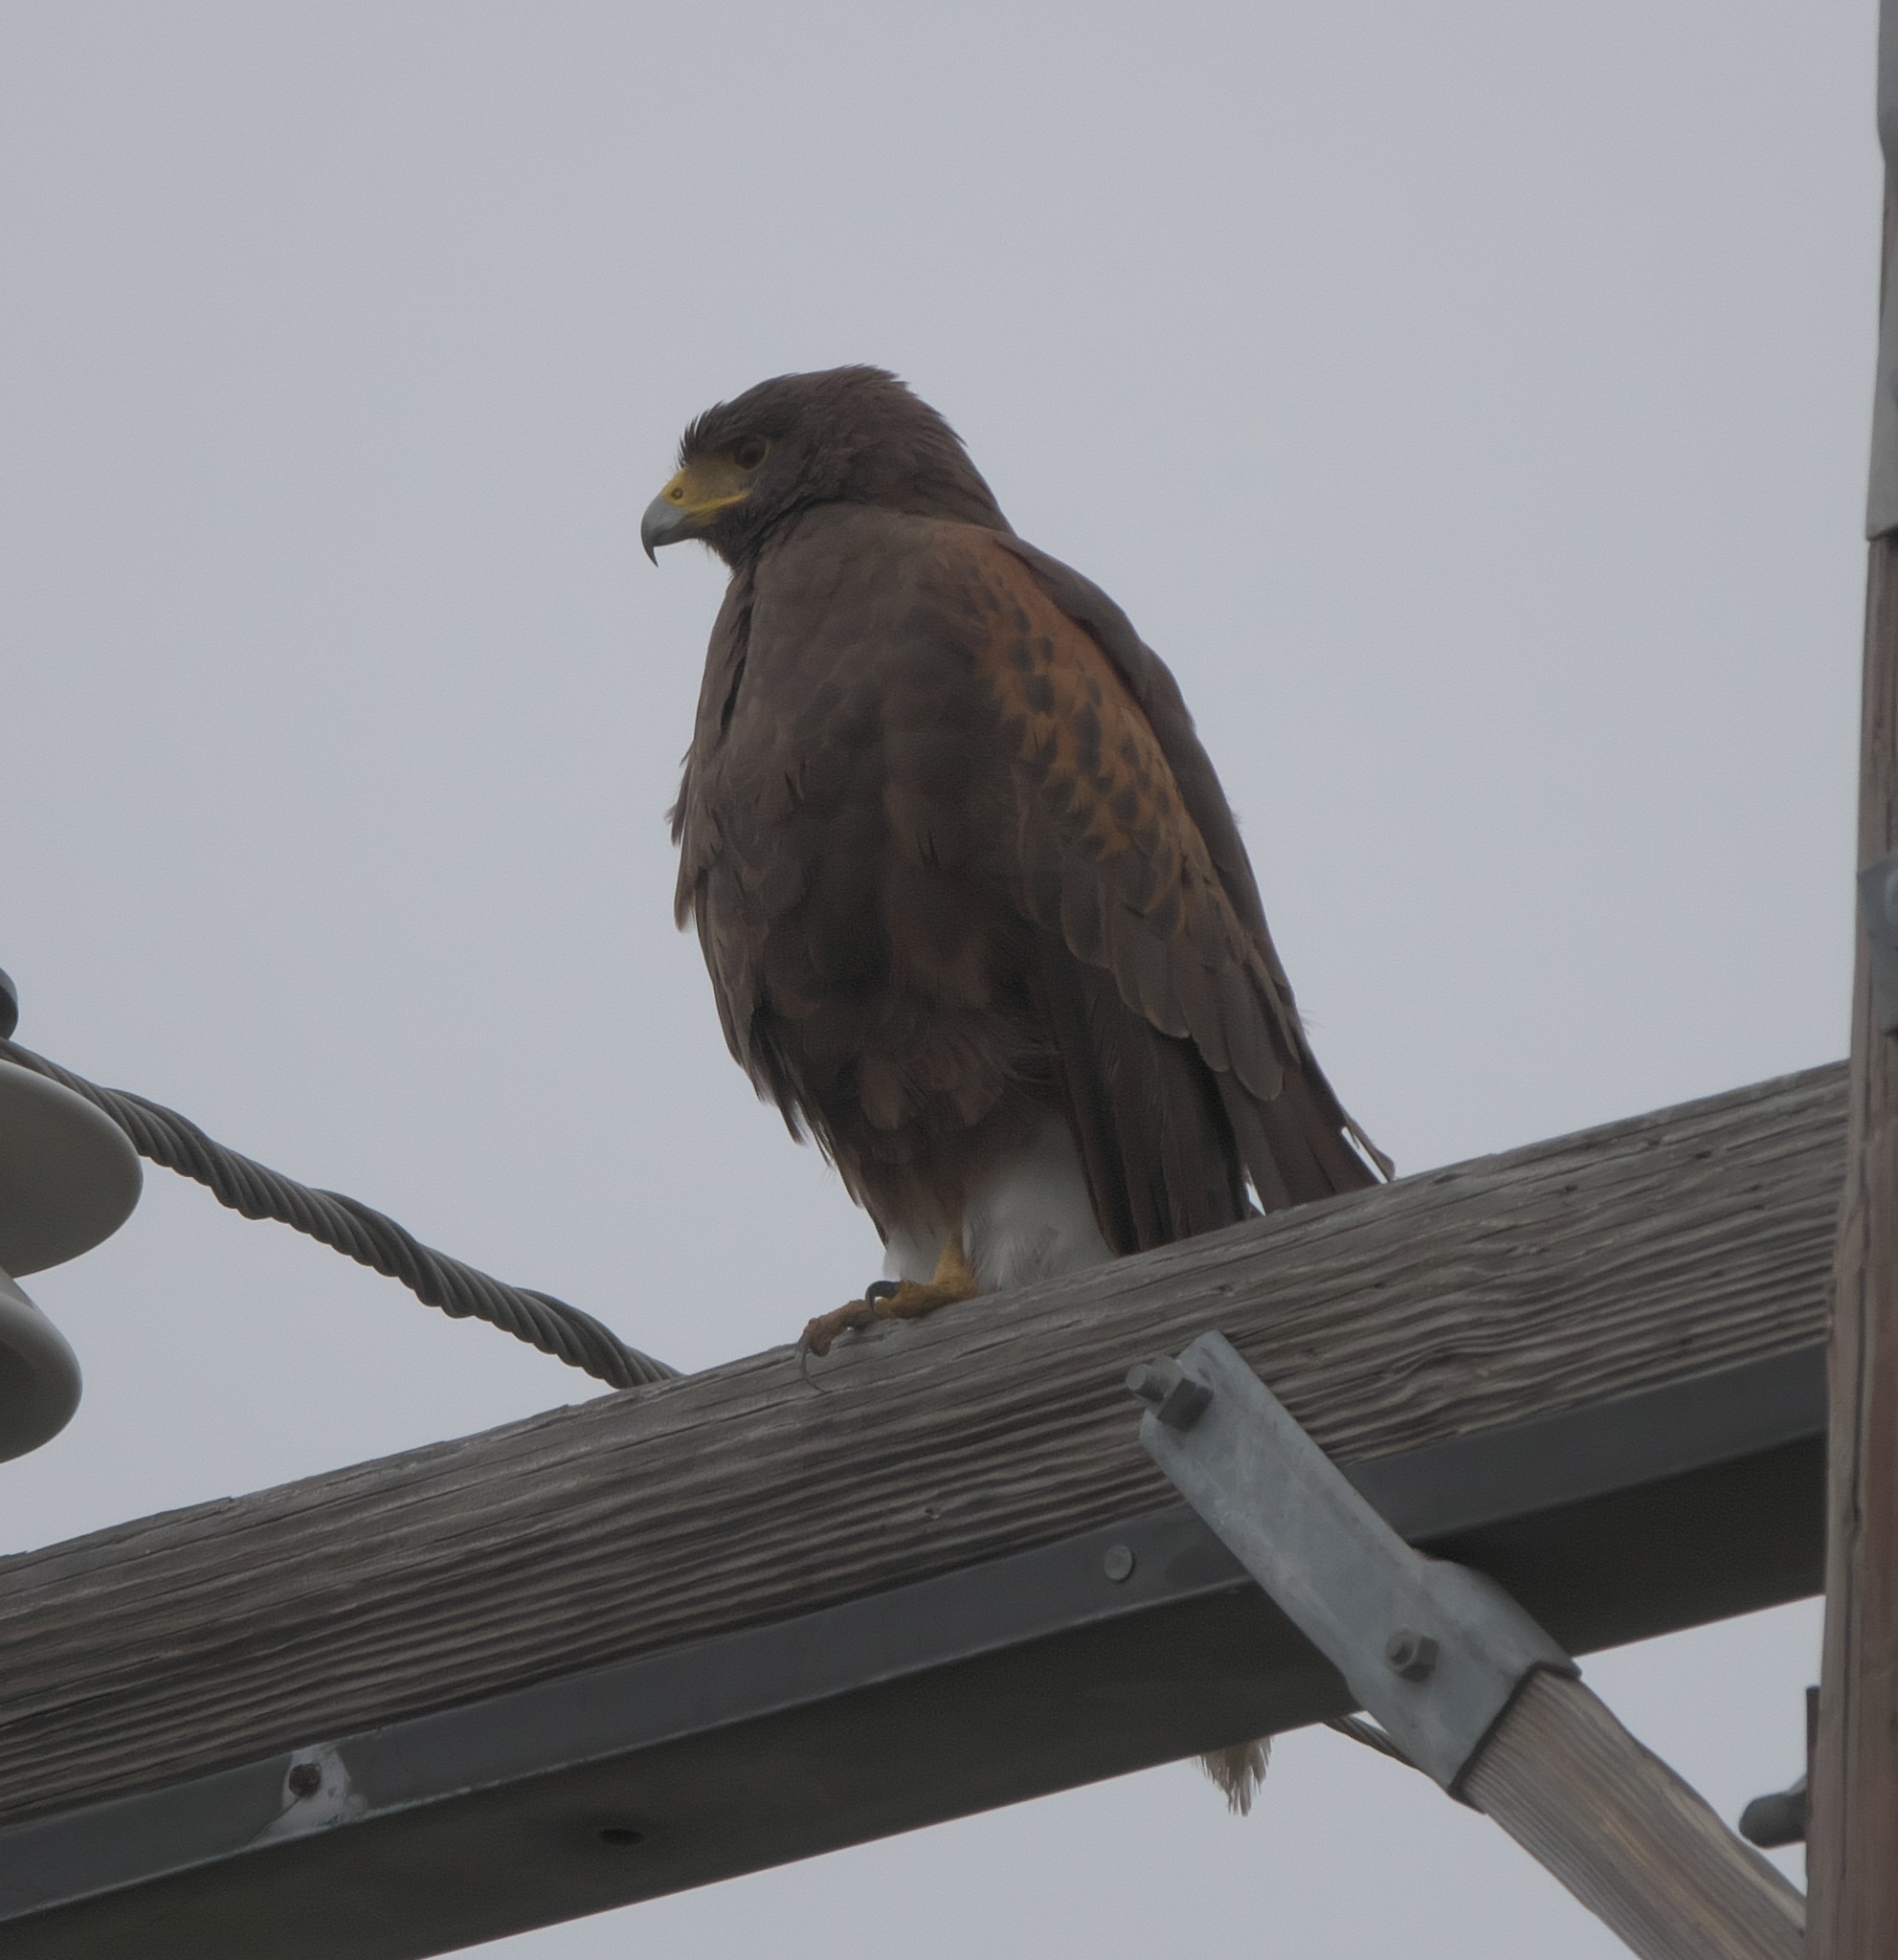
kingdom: Animalia
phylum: Chordata
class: Aves
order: Accipitriformes
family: Accipitridae
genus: Parabuteo
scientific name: Parabuteo unicinctus
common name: Harris's hawk
